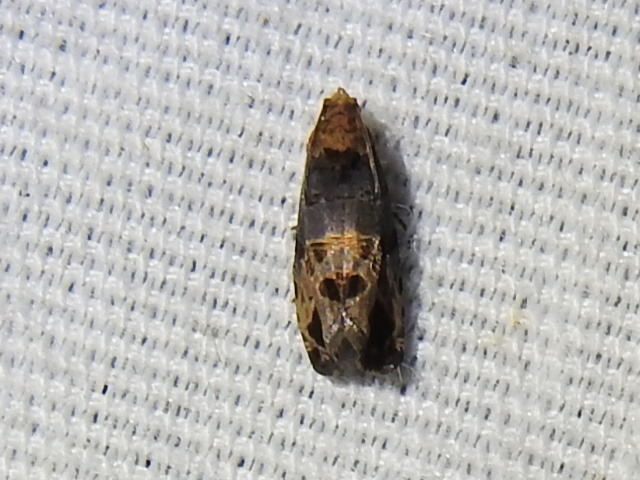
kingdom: Animalia
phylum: Arthropoda
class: Insecta
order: Lepidoptera
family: Tortricidae
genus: Paralobesia
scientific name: Paralobesia viteana
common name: Grape berry moth
